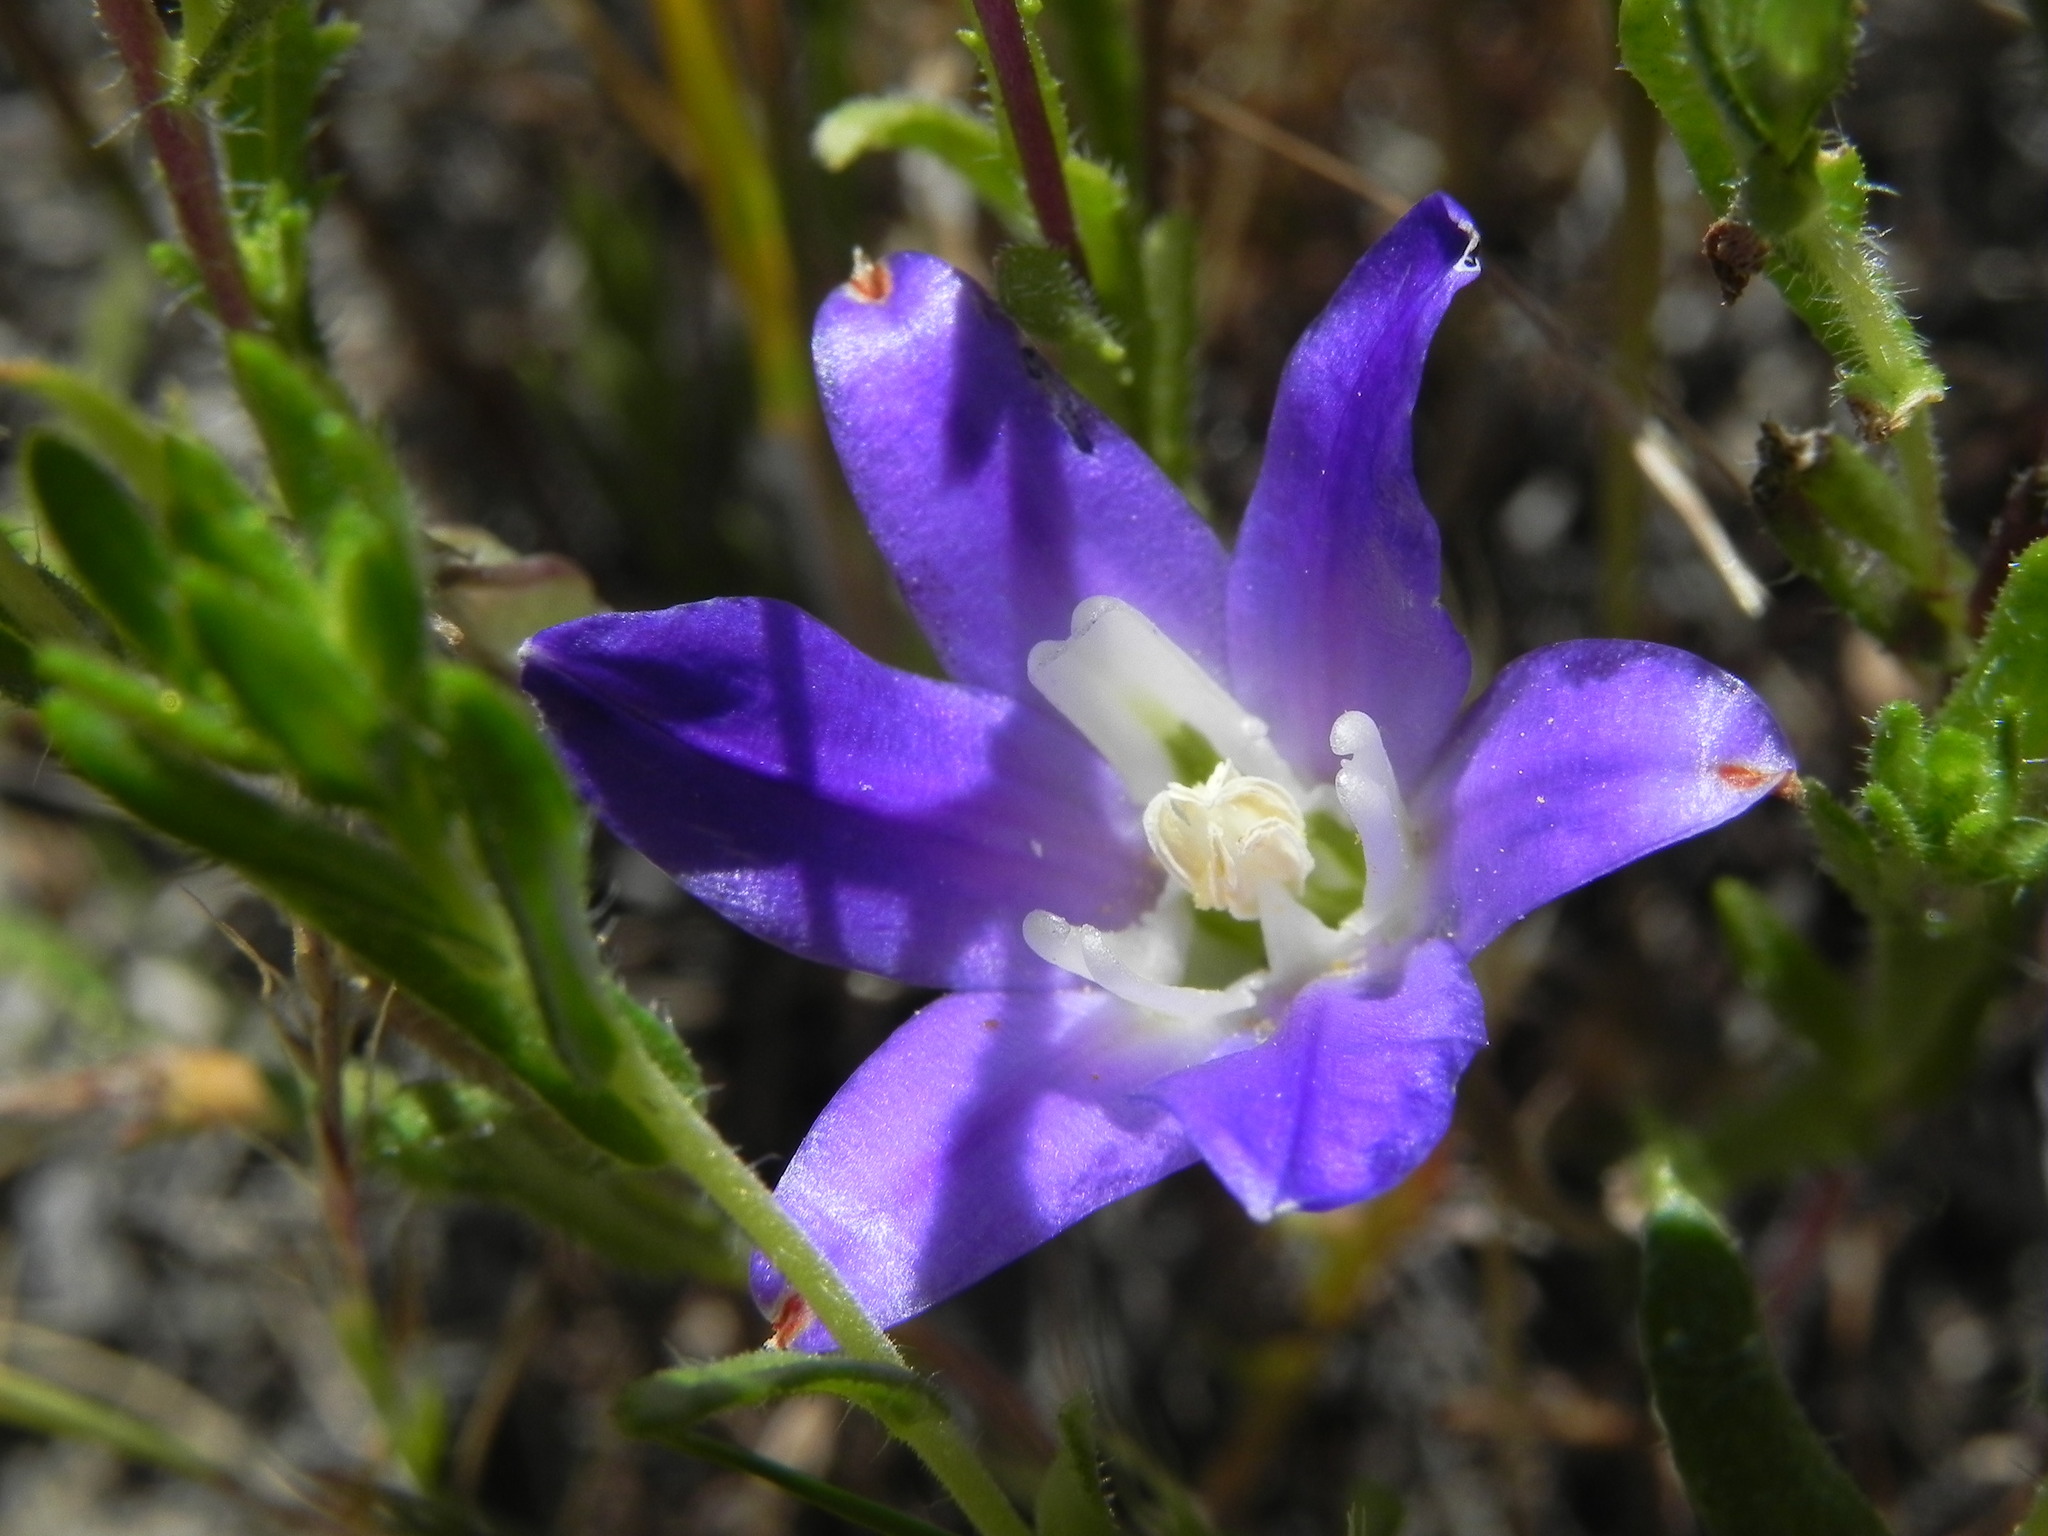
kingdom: Plantae
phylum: Tracheophyta
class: Liliopsida
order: Asparagales
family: Asparagaceae
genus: Brodiaea
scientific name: Brodiaea terrestris
